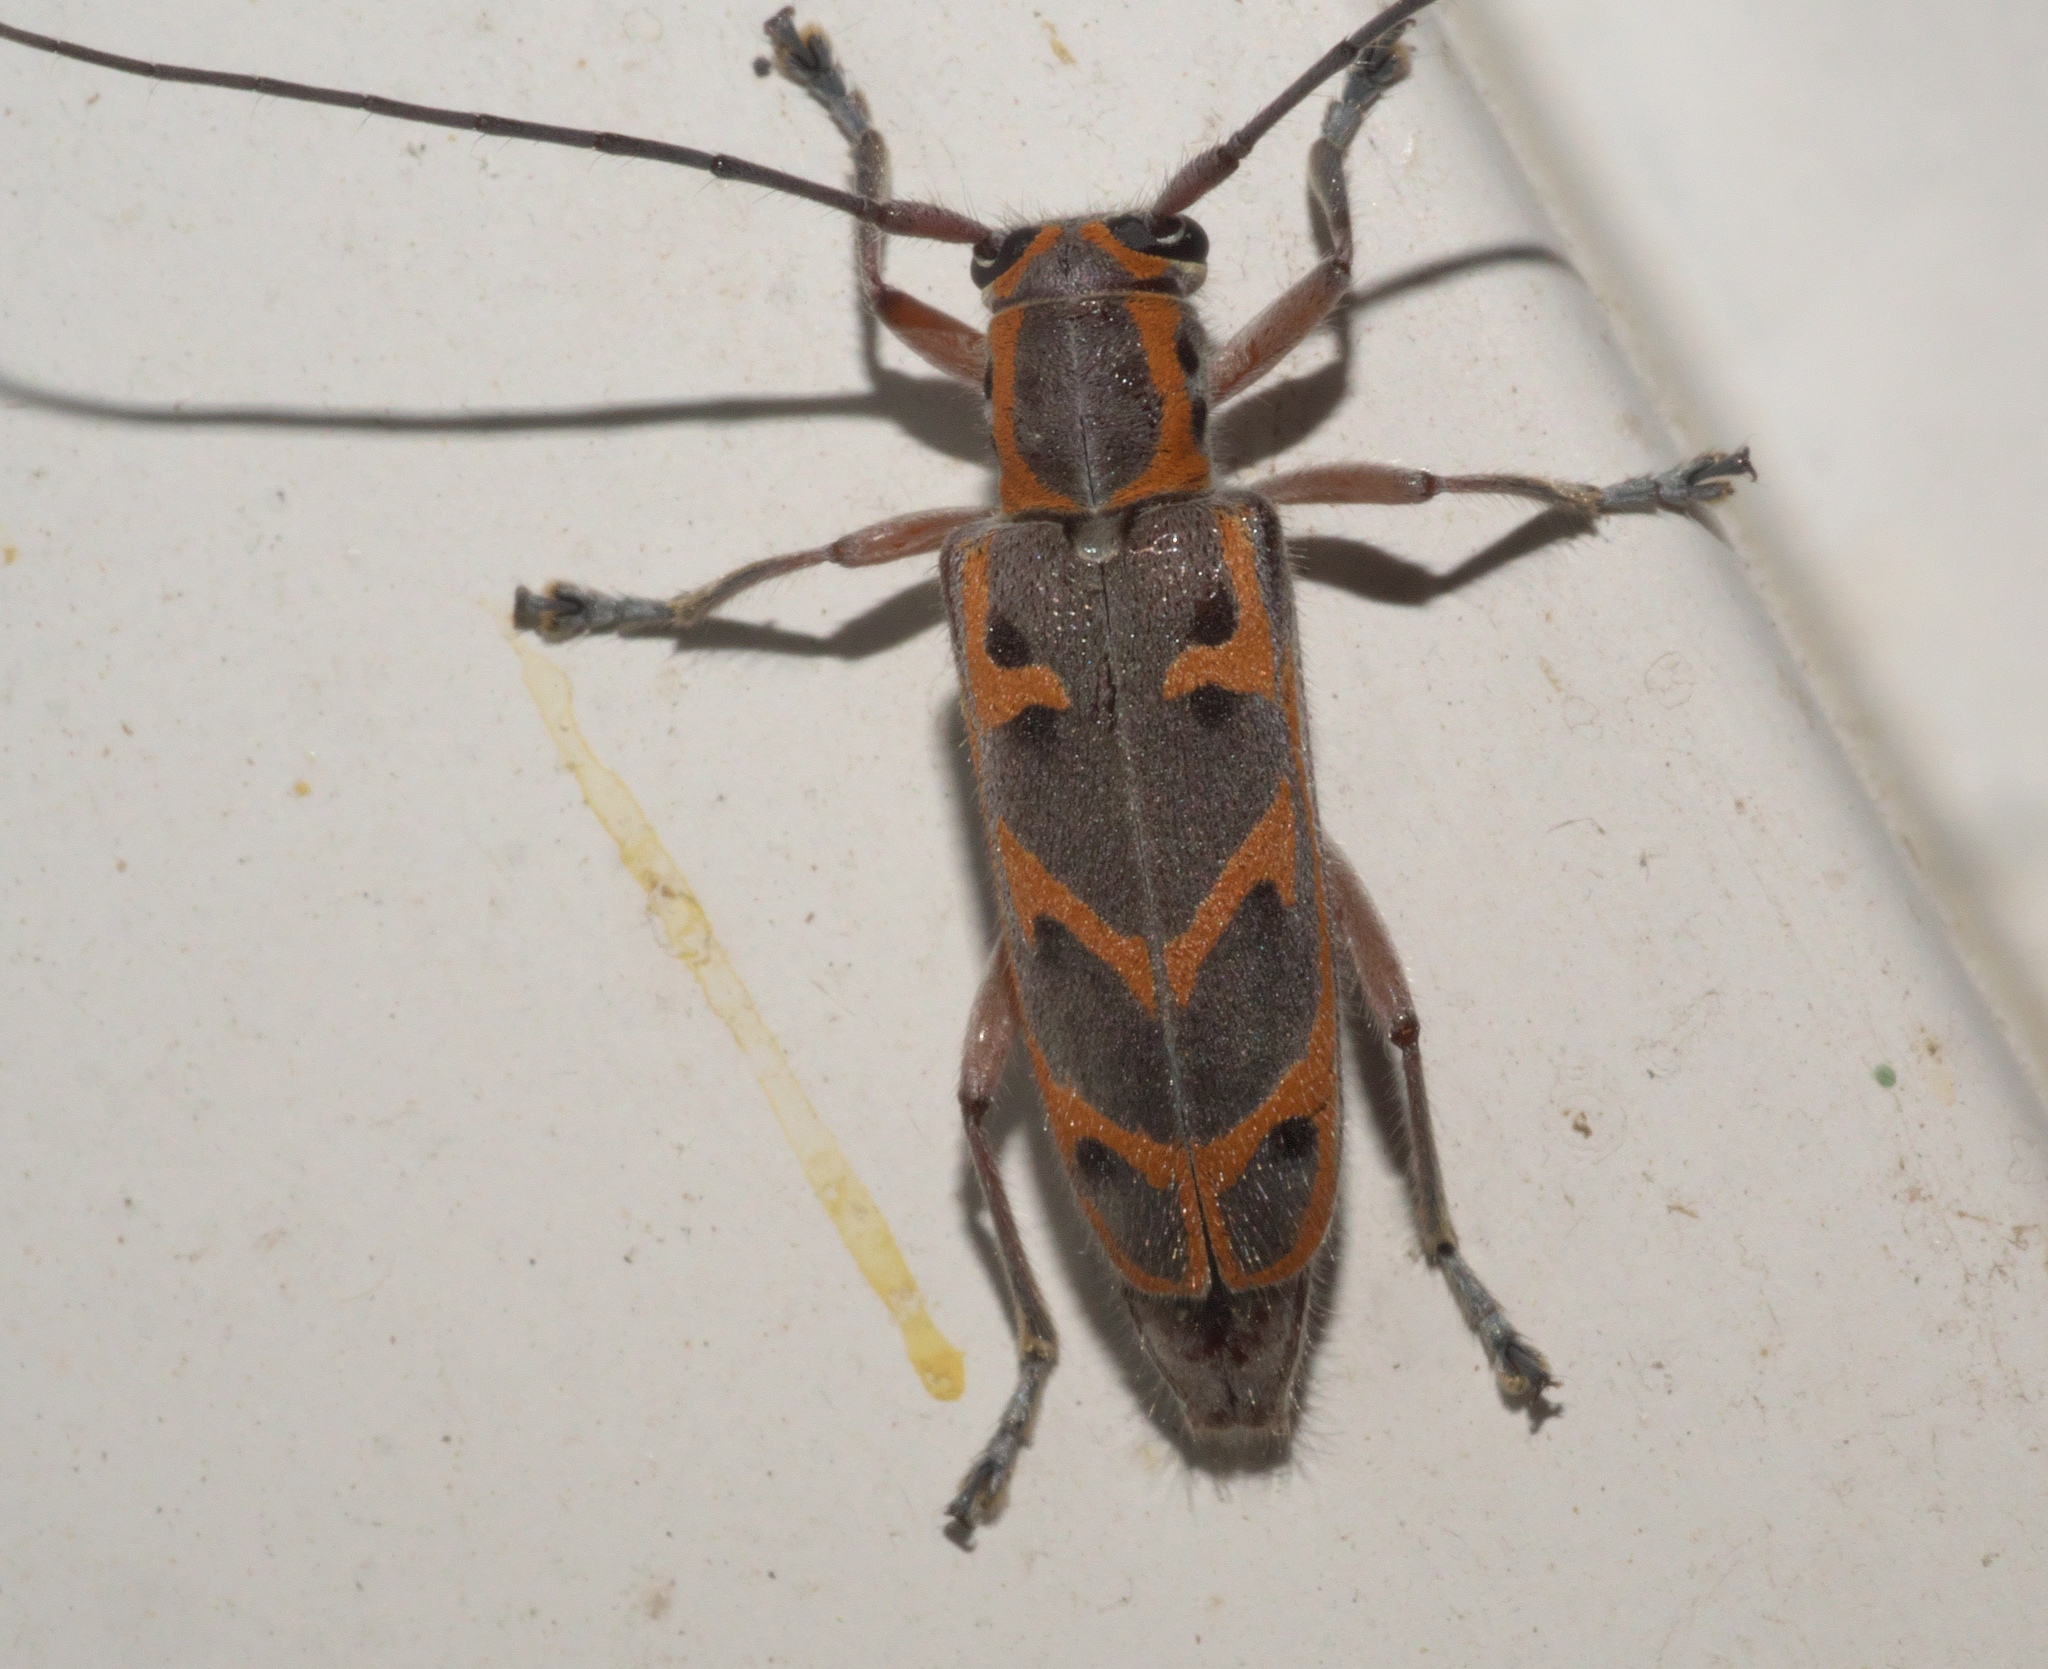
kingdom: Animalia
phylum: Arthropoda
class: Insecta
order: Coleoptera
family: Cerambycidae
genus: Saperda
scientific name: Saperda tridentata
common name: Elm borer
